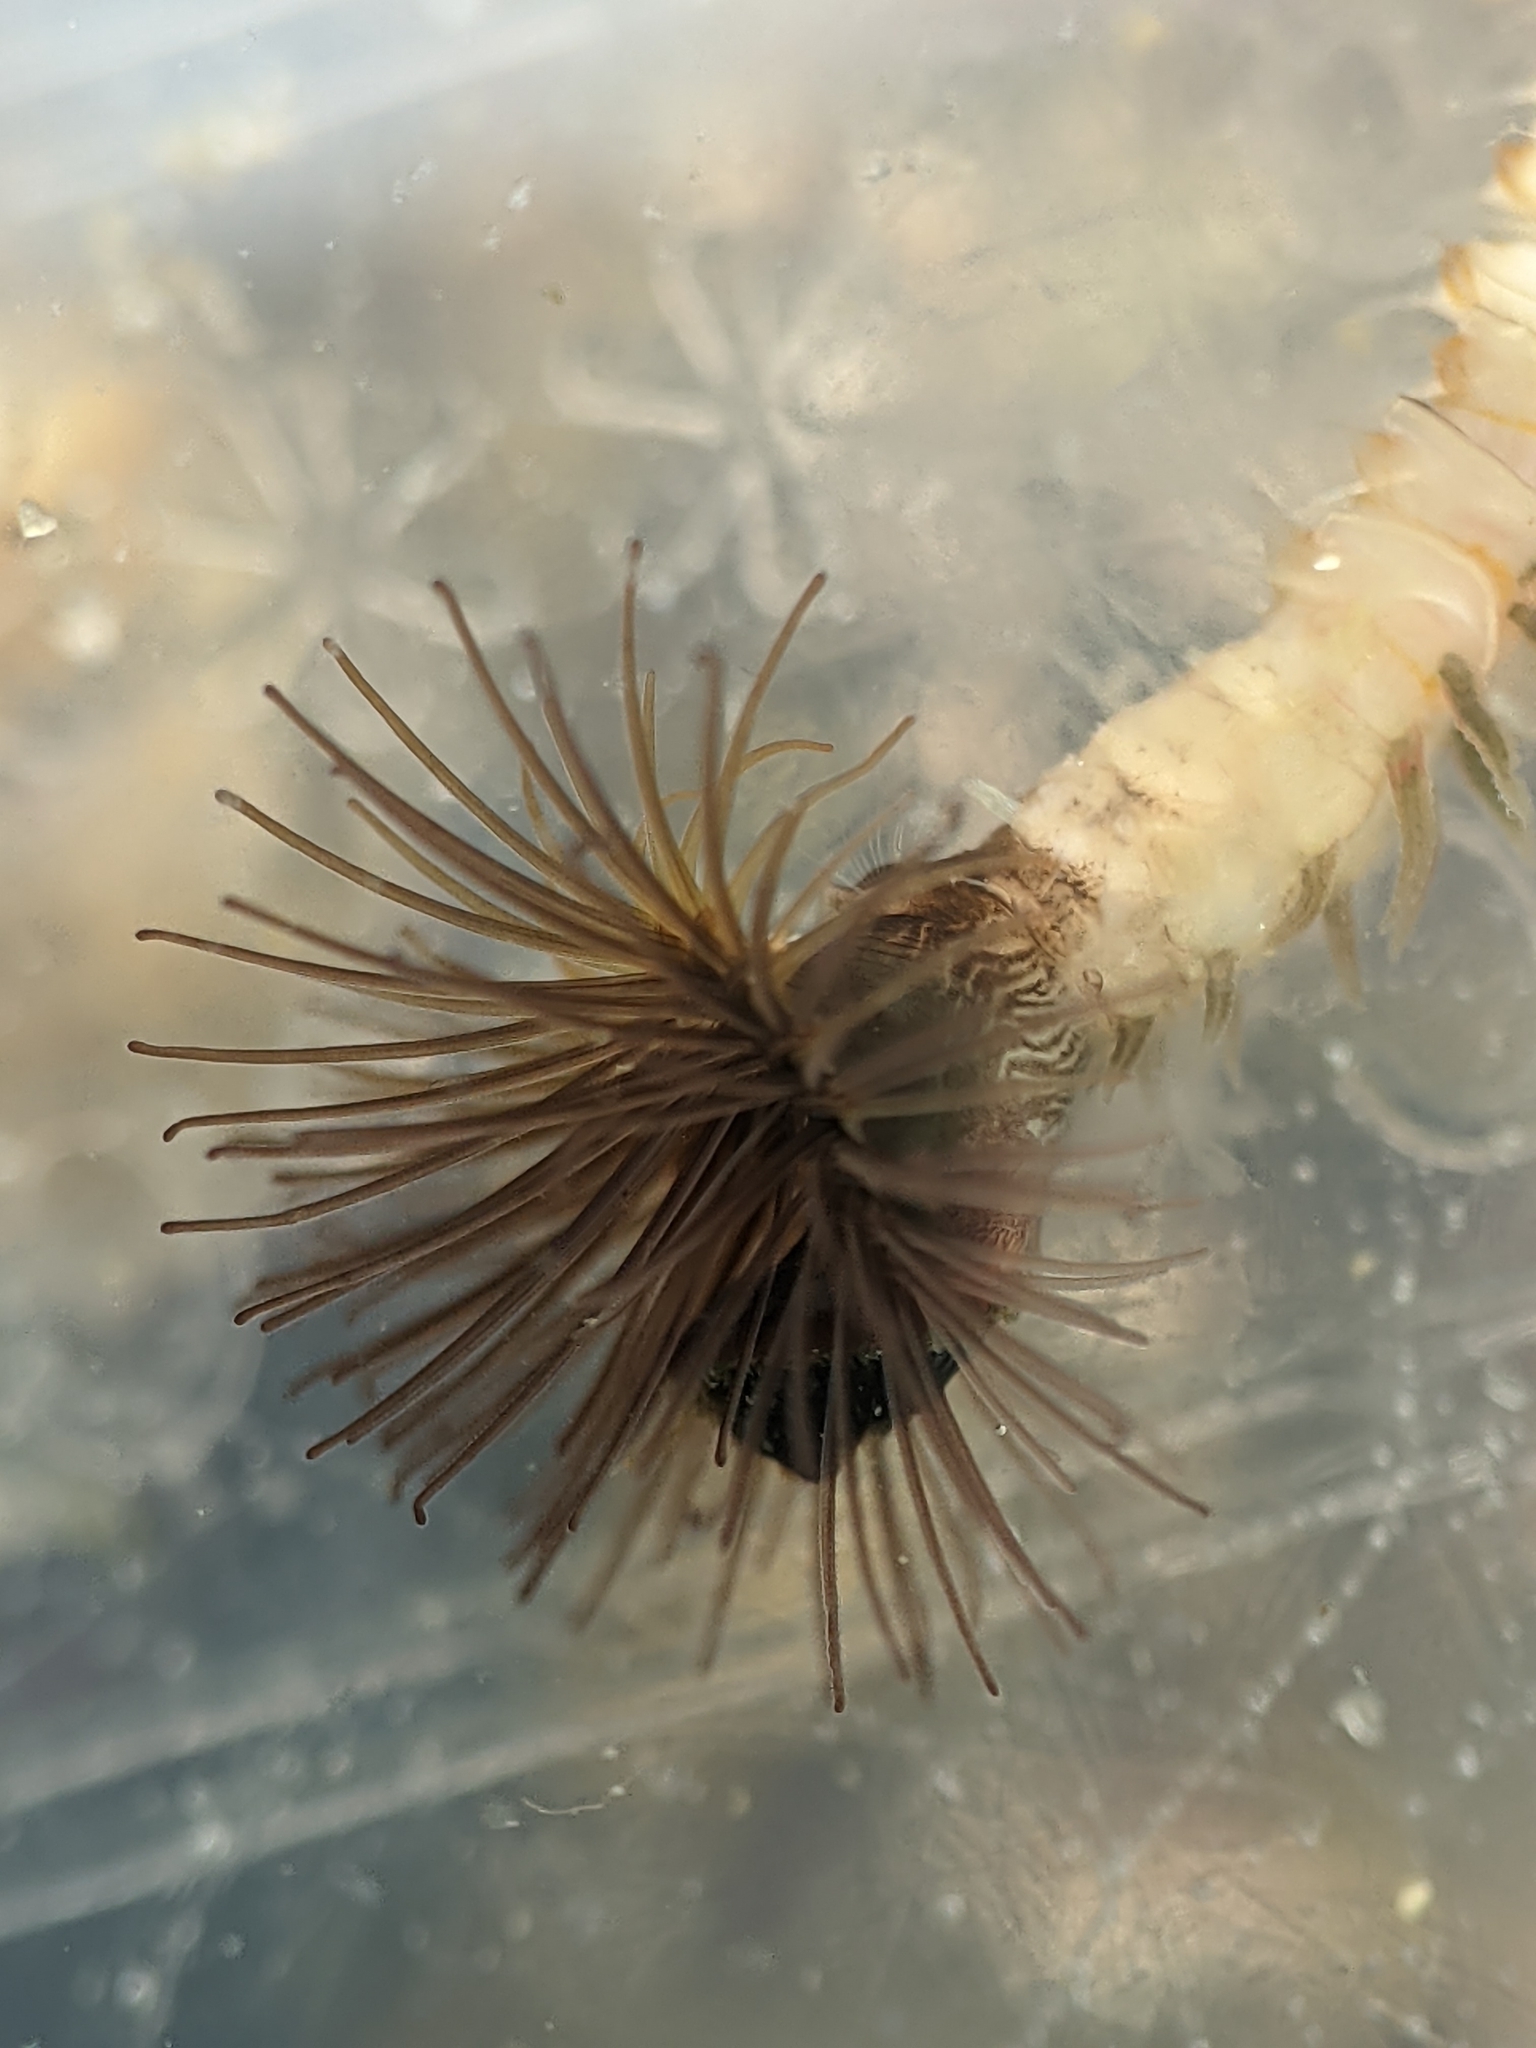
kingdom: Animalia
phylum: Annelida
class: Polychaeta
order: Sabellida
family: Sabellariidae
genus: Phragmatopoma
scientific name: Phragmatopoma californica
